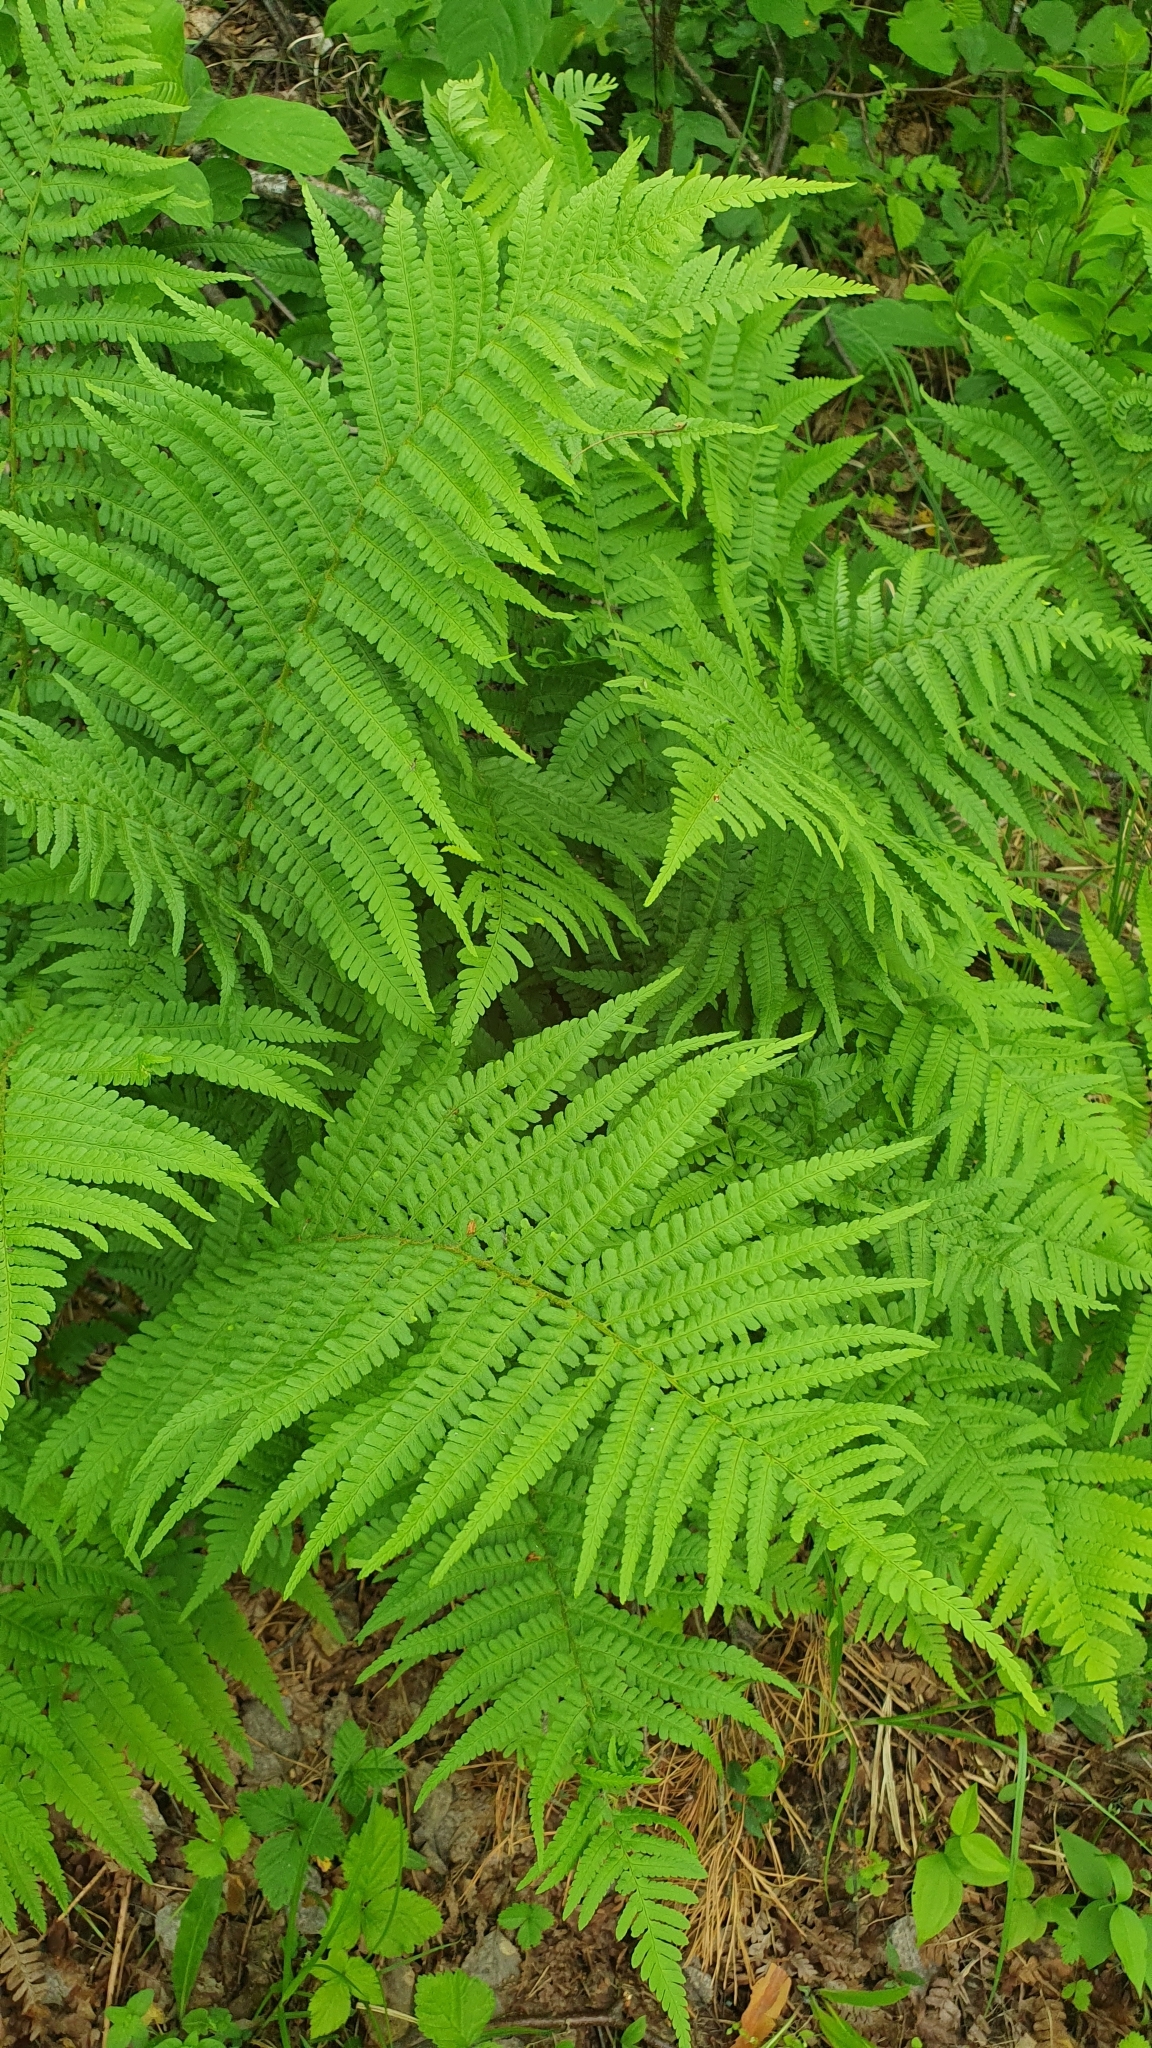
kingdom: Plantae
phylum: Tracheophyta
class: Polypodiopsida
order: Polypodiales
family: Dryopteridaceae
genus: Dryopteris
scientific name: Dryopteris filix-mas
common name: Male fern
